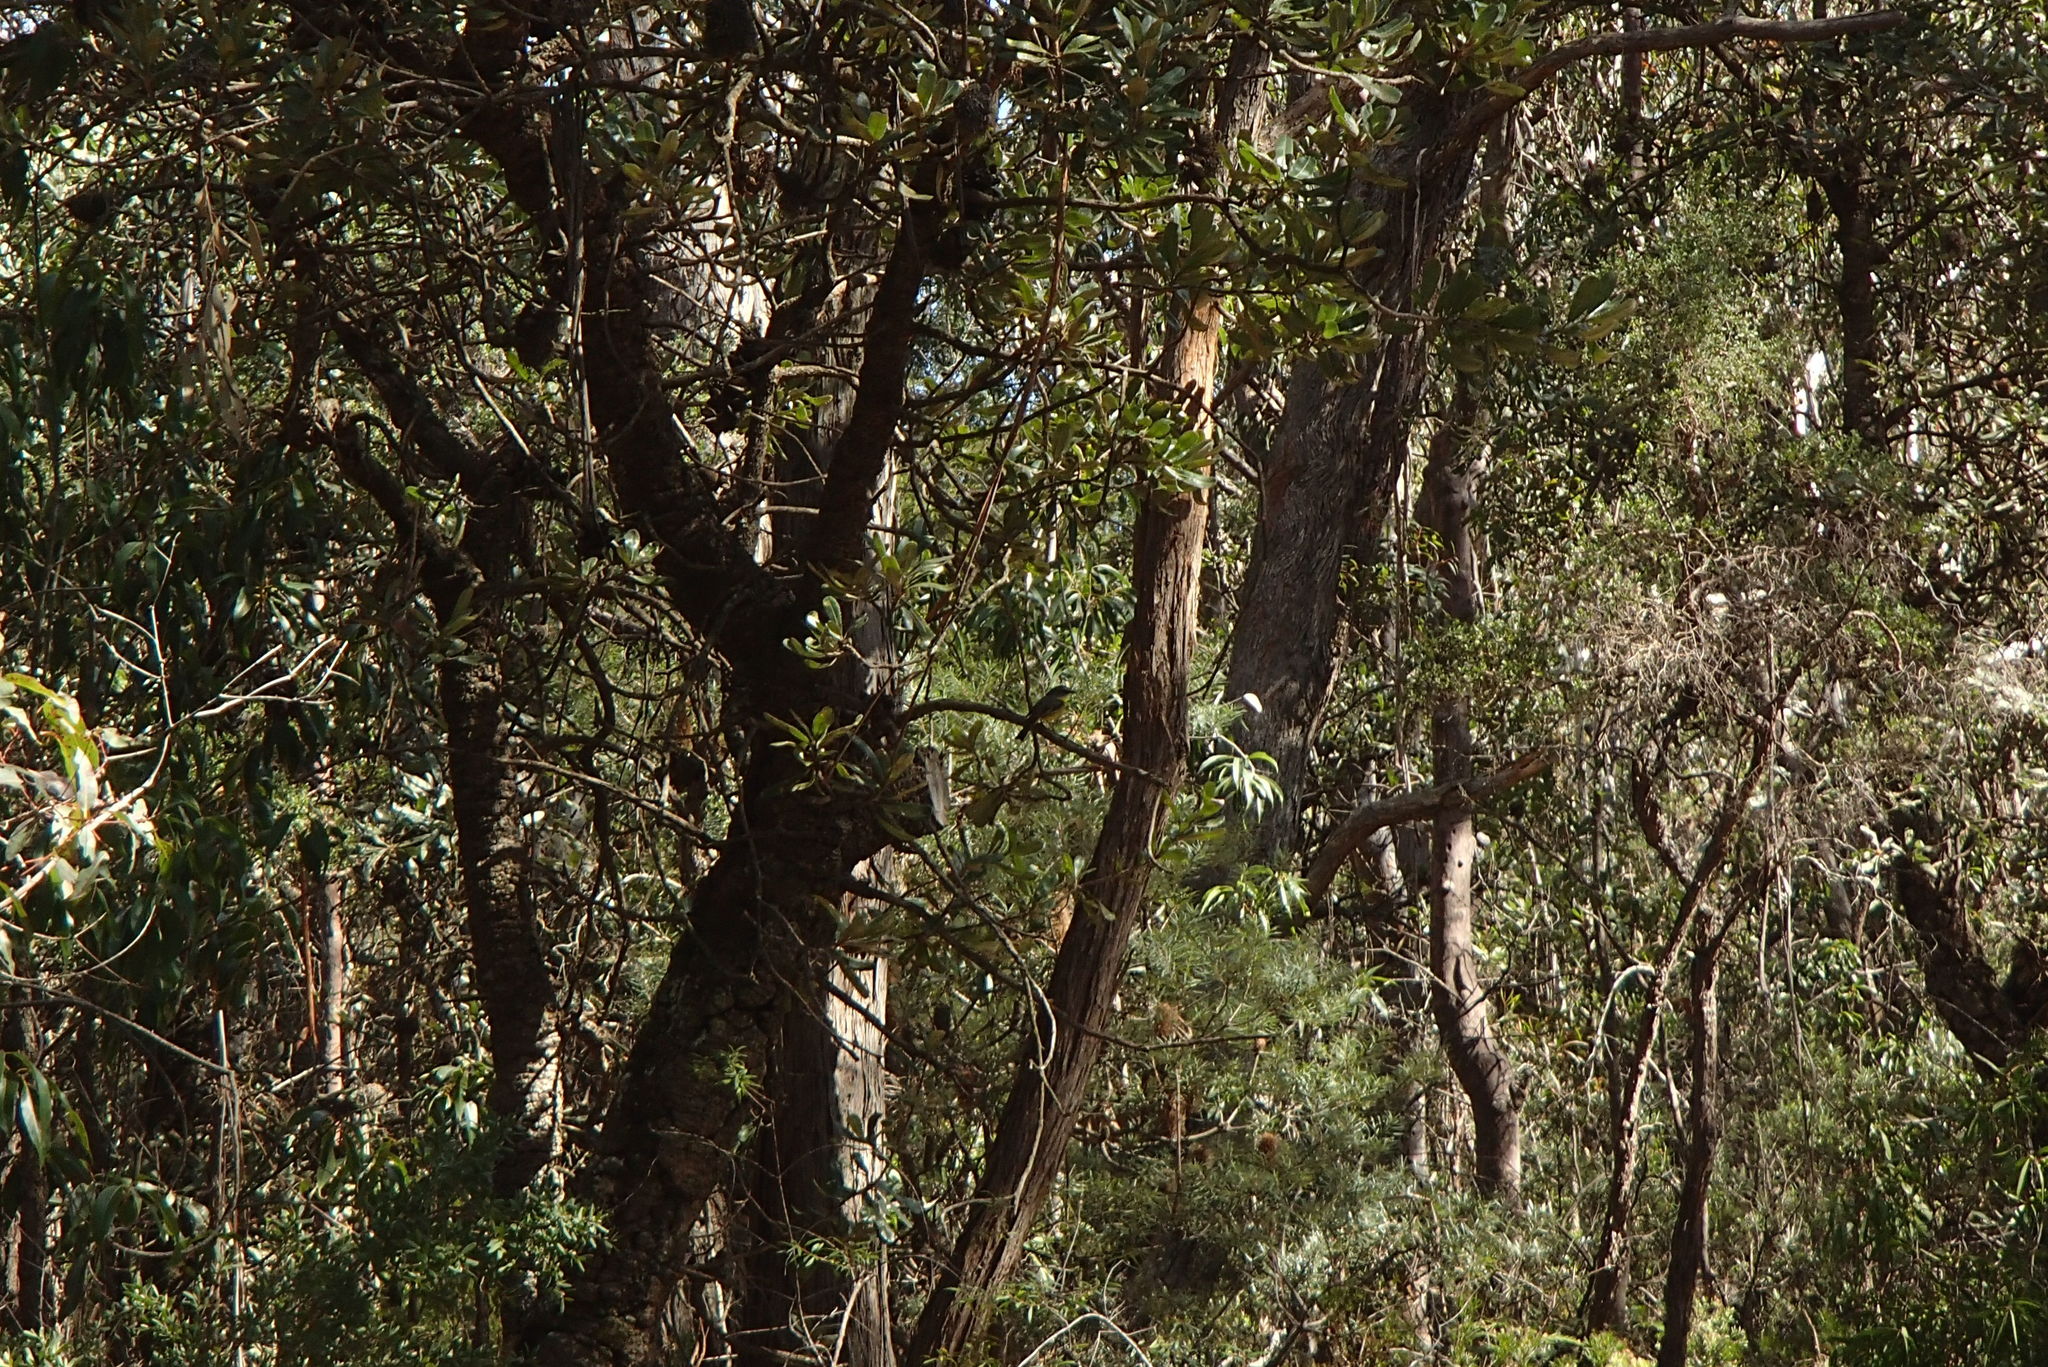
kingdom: Animalia
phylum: Chordata
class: Aves
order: Passeriformes
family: Petroicidae
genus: Eopsaltria
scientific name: Eopsaltria australis
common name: Eastern yellow robin
